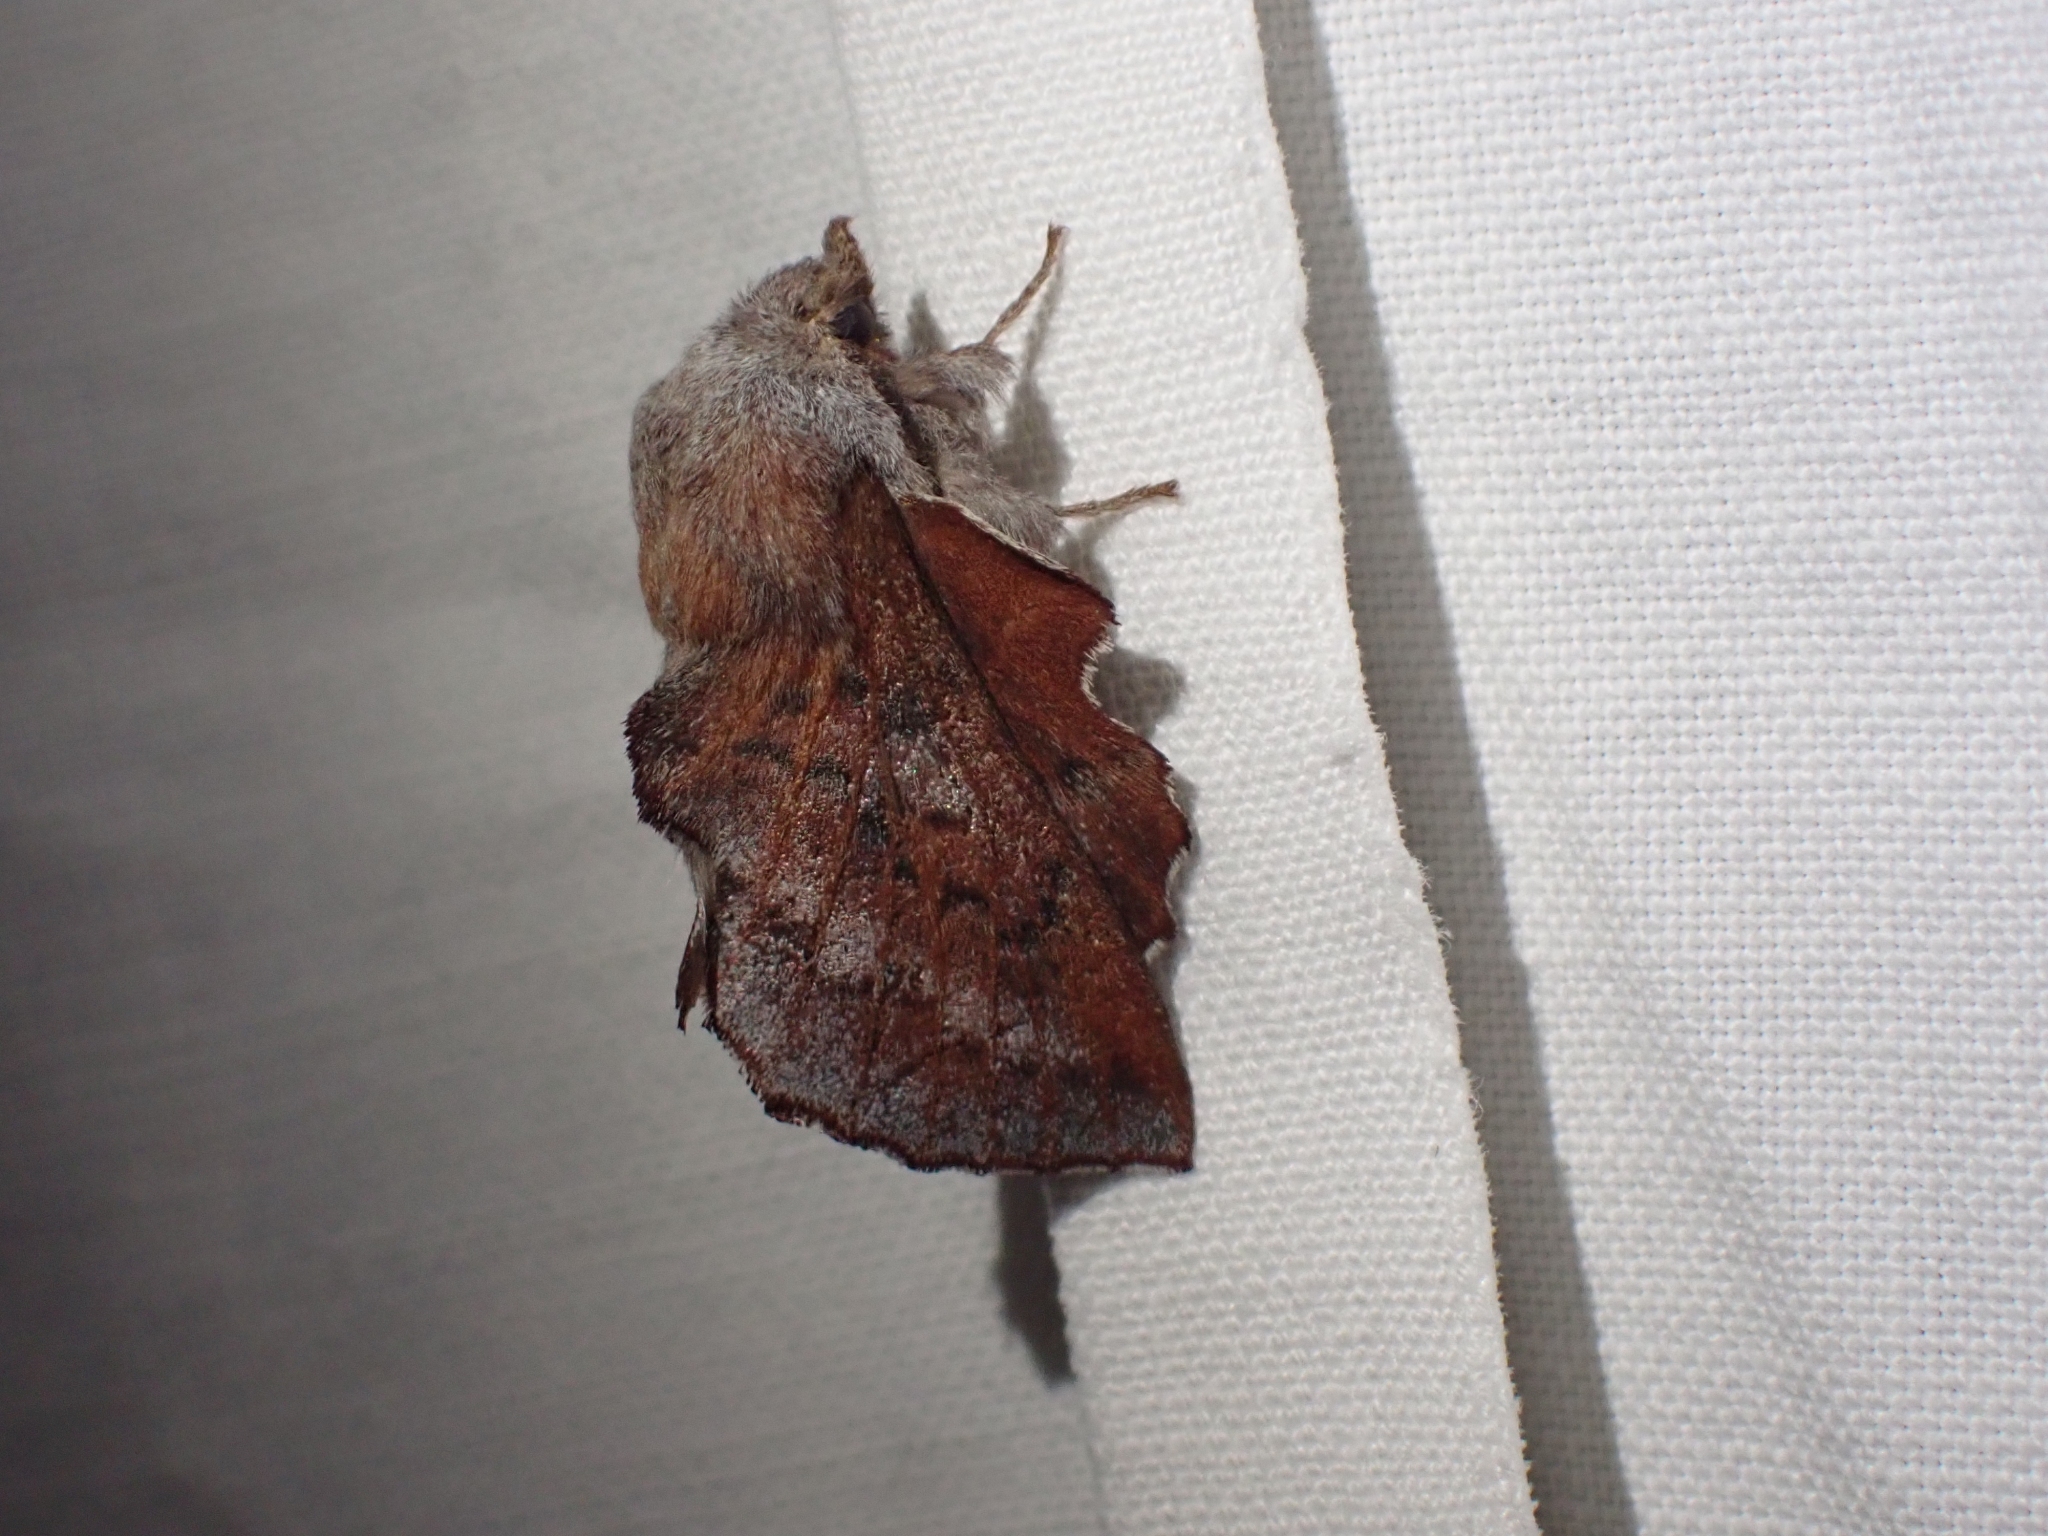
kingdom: Animalia
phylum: Arthropoda
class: Insecta
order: Lepidoptera
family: Lasiocampidae
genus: Phyllodesma
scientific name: Phyllodesma americana
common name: American lappet moth
